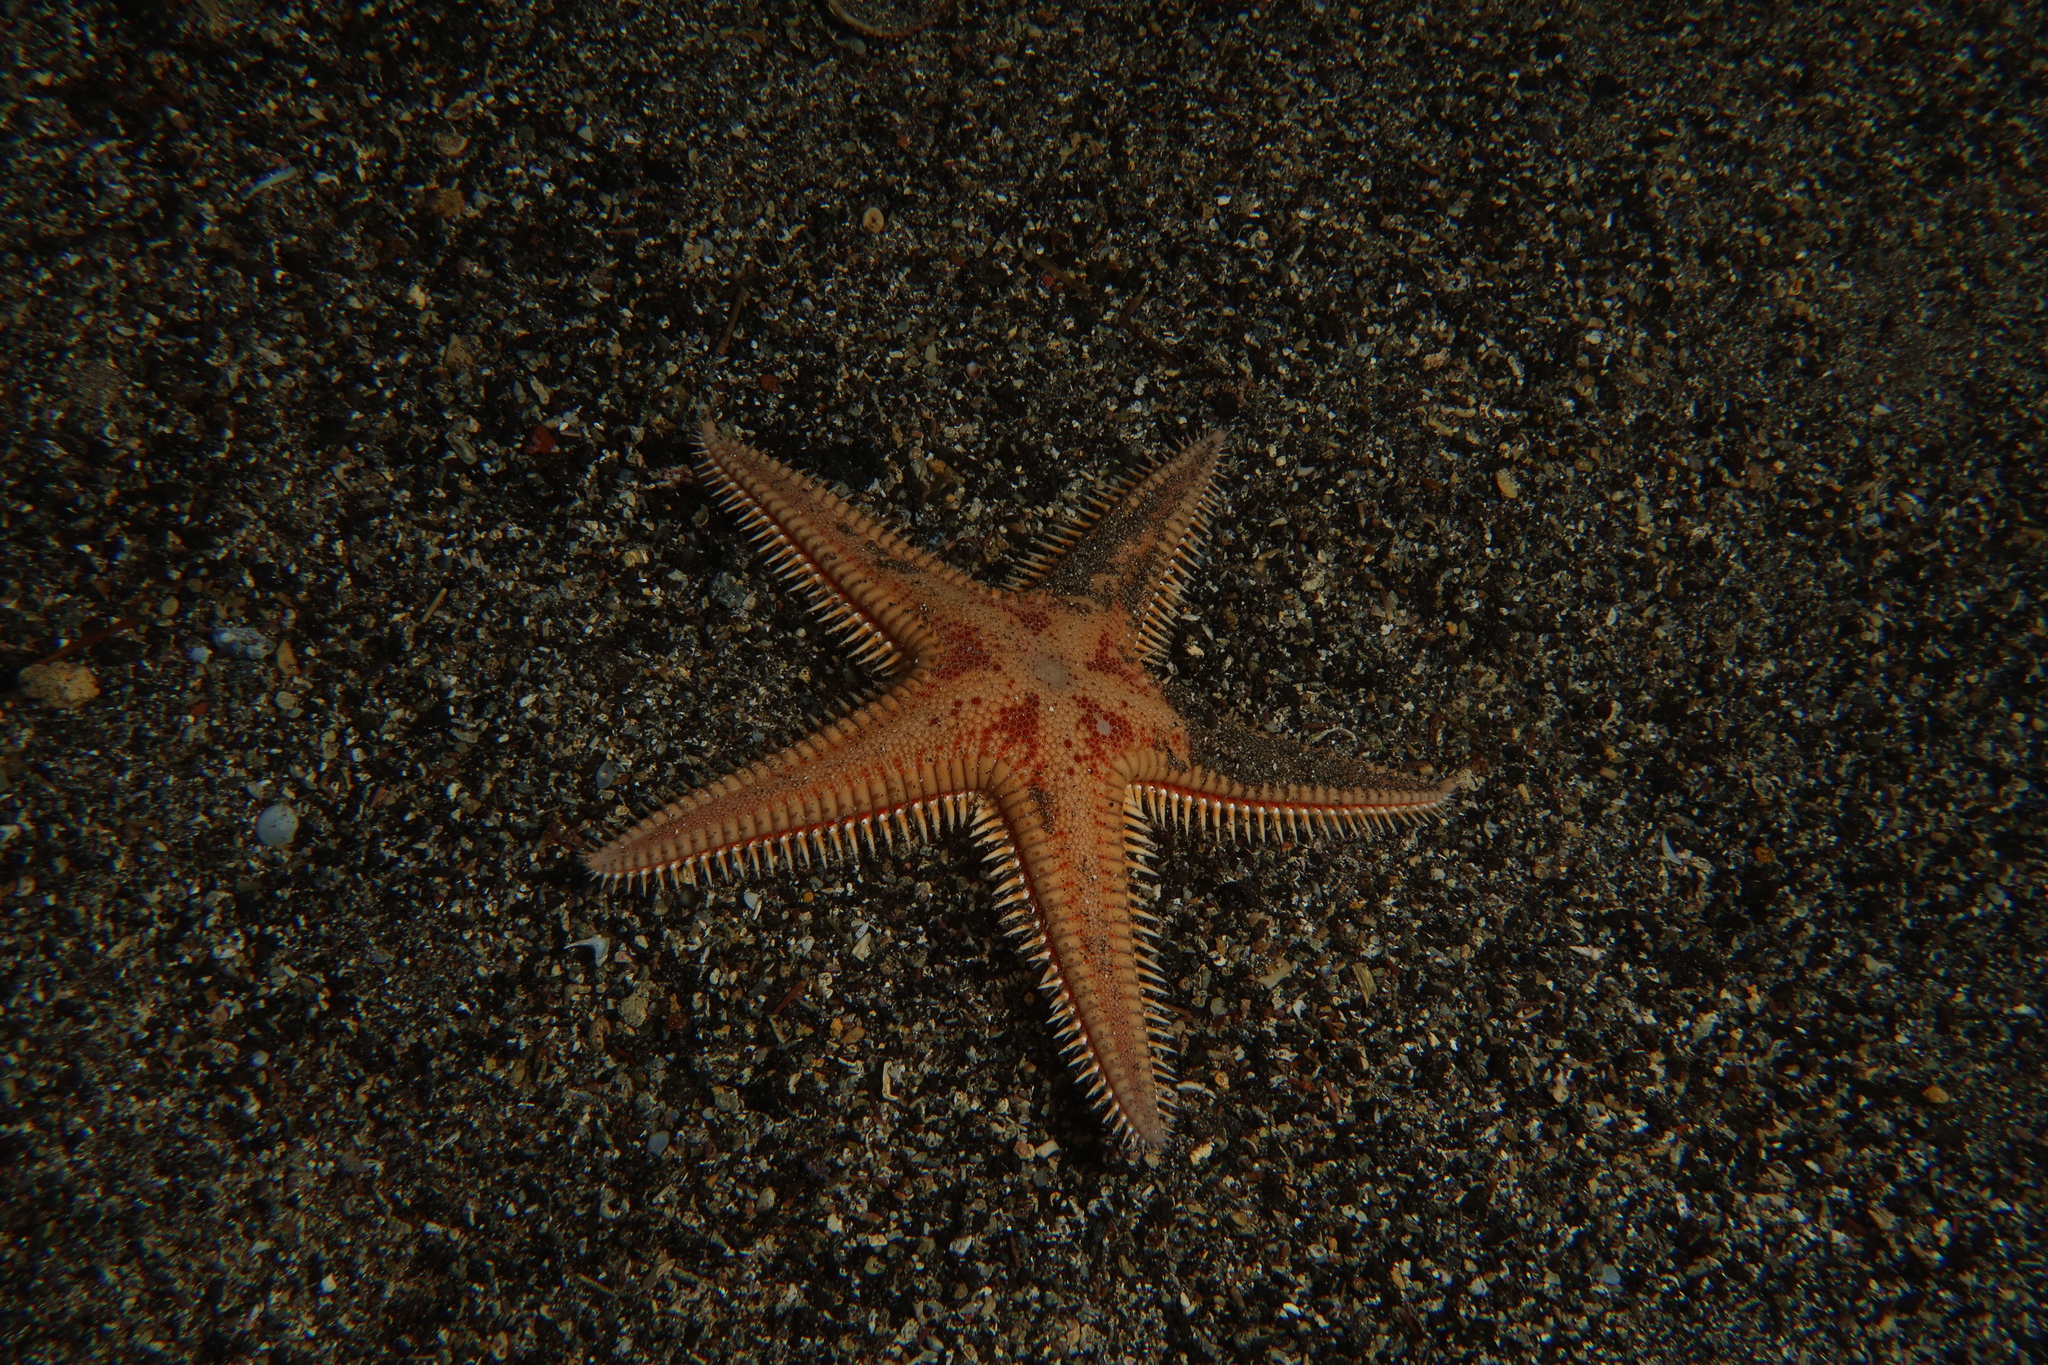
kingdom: Animalia
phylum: Echinodermata
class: Asteroidea
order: Paxillosida
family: Astropectinidae
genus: Astropecten
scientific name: Astropecten aranciacus
